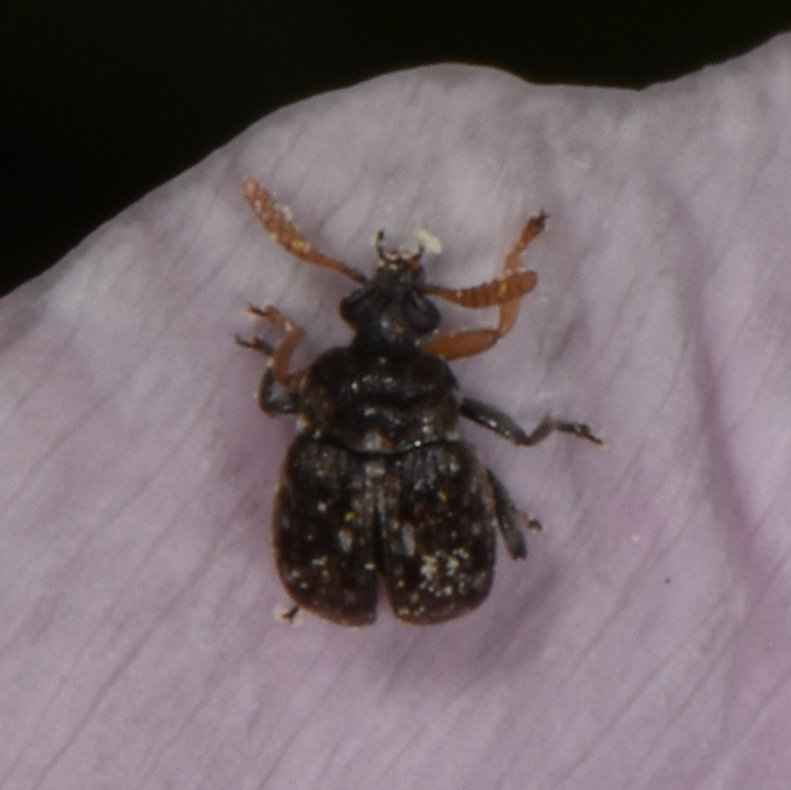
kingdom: Animalia
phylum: Arthropoda
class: Insecta
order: Coleoptera
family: Chrysomelidae
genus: Bruchus
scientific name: Bruchus brachialis
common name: Vetch bruchid
